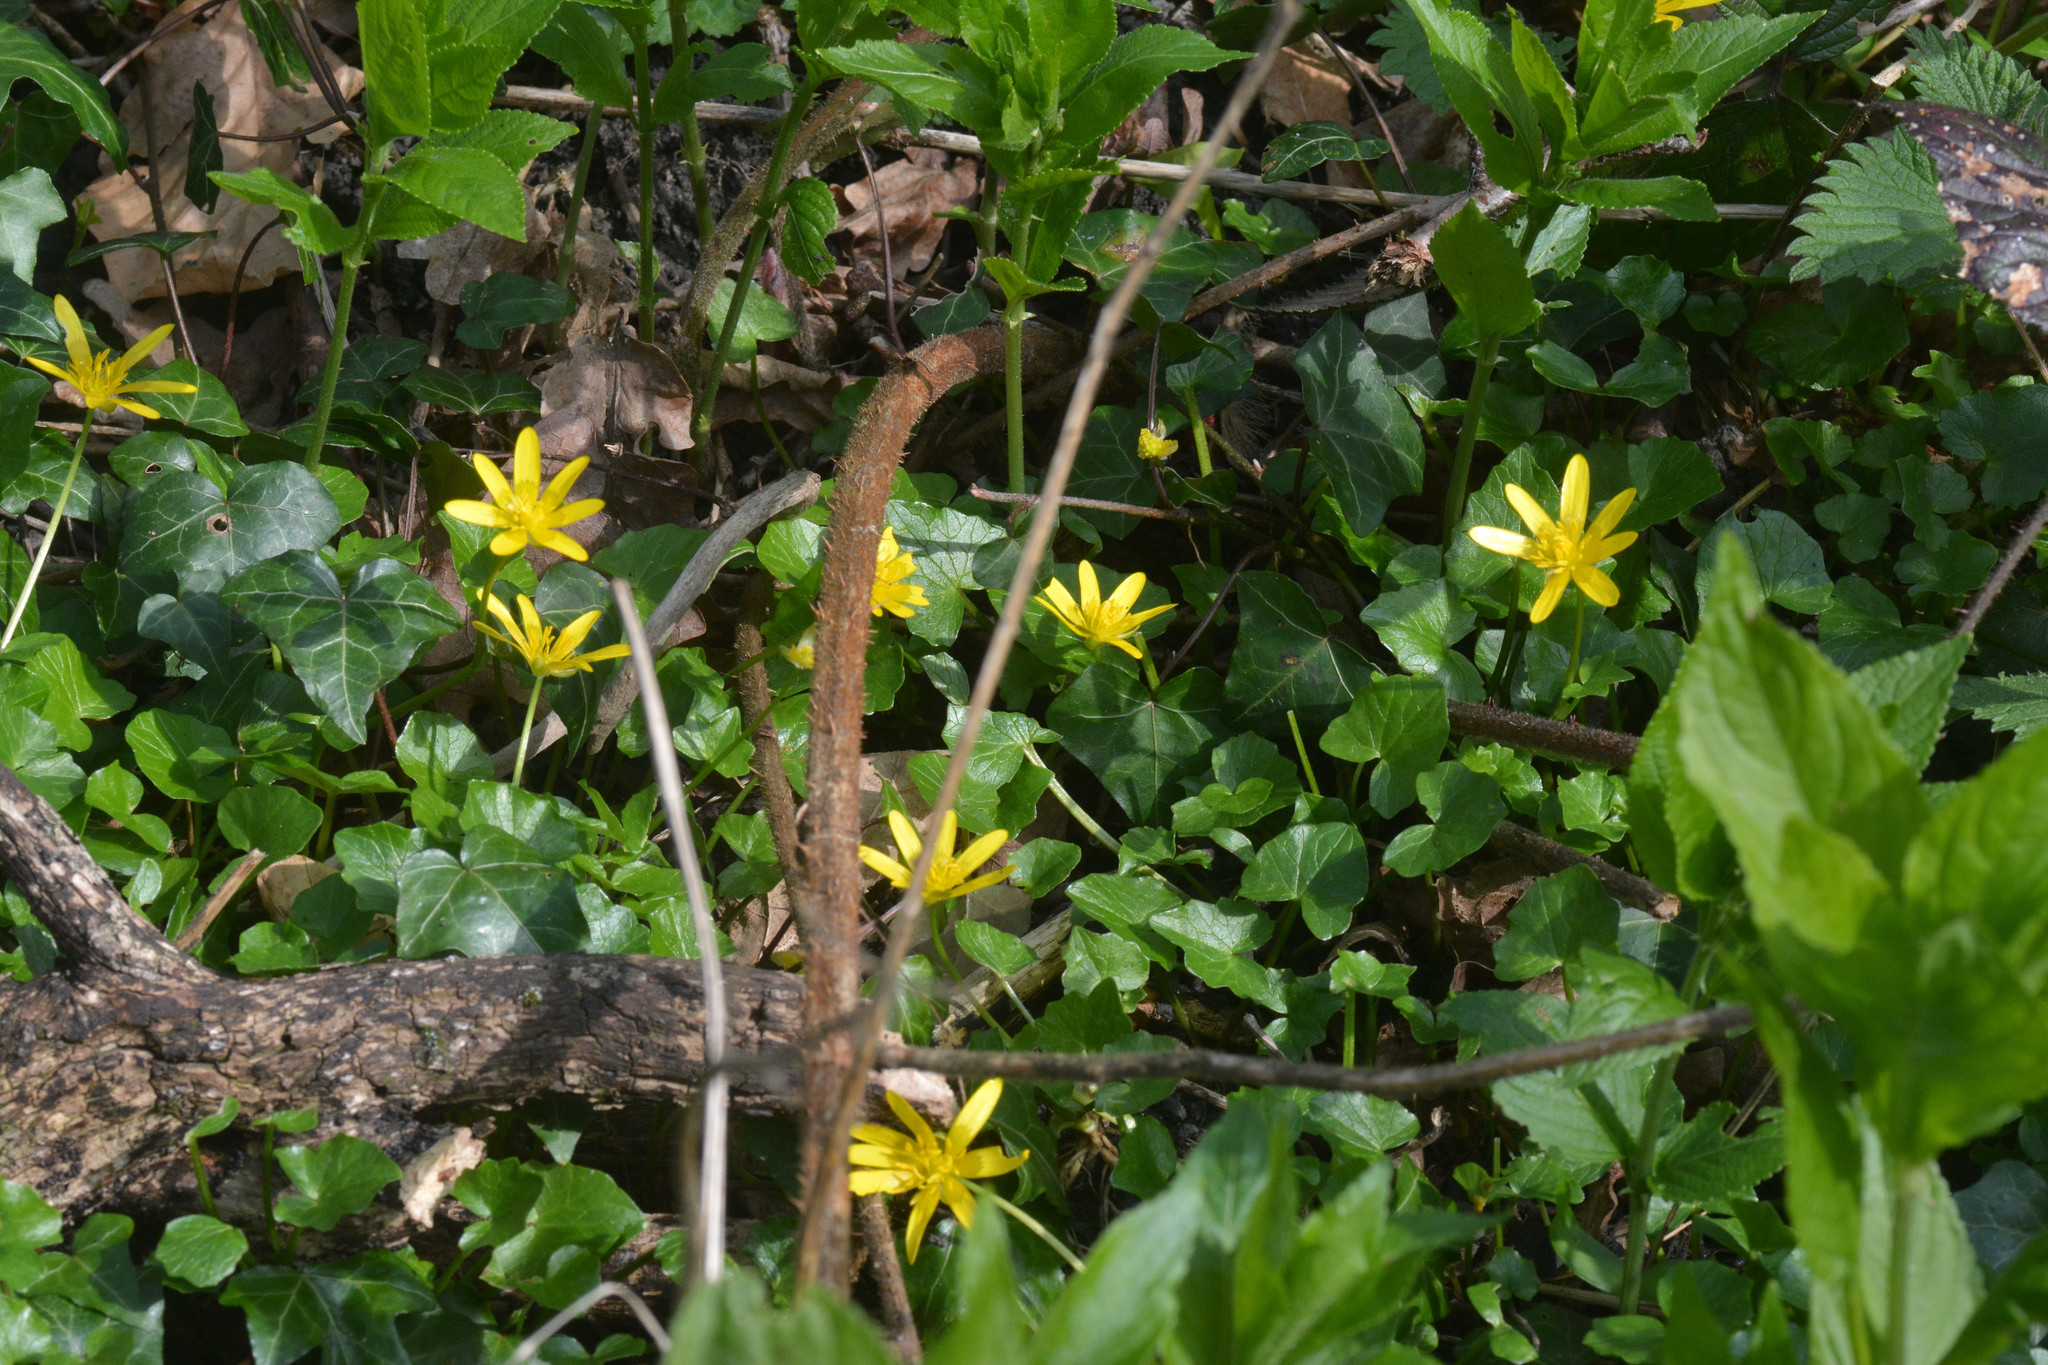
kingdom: Plantae
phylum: Tracheophyta
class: Magnoliopsida
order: Ranunculales
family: Ranunculaceae
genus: Ficaria
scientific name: Ficaria verna
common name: Lesser celandine
